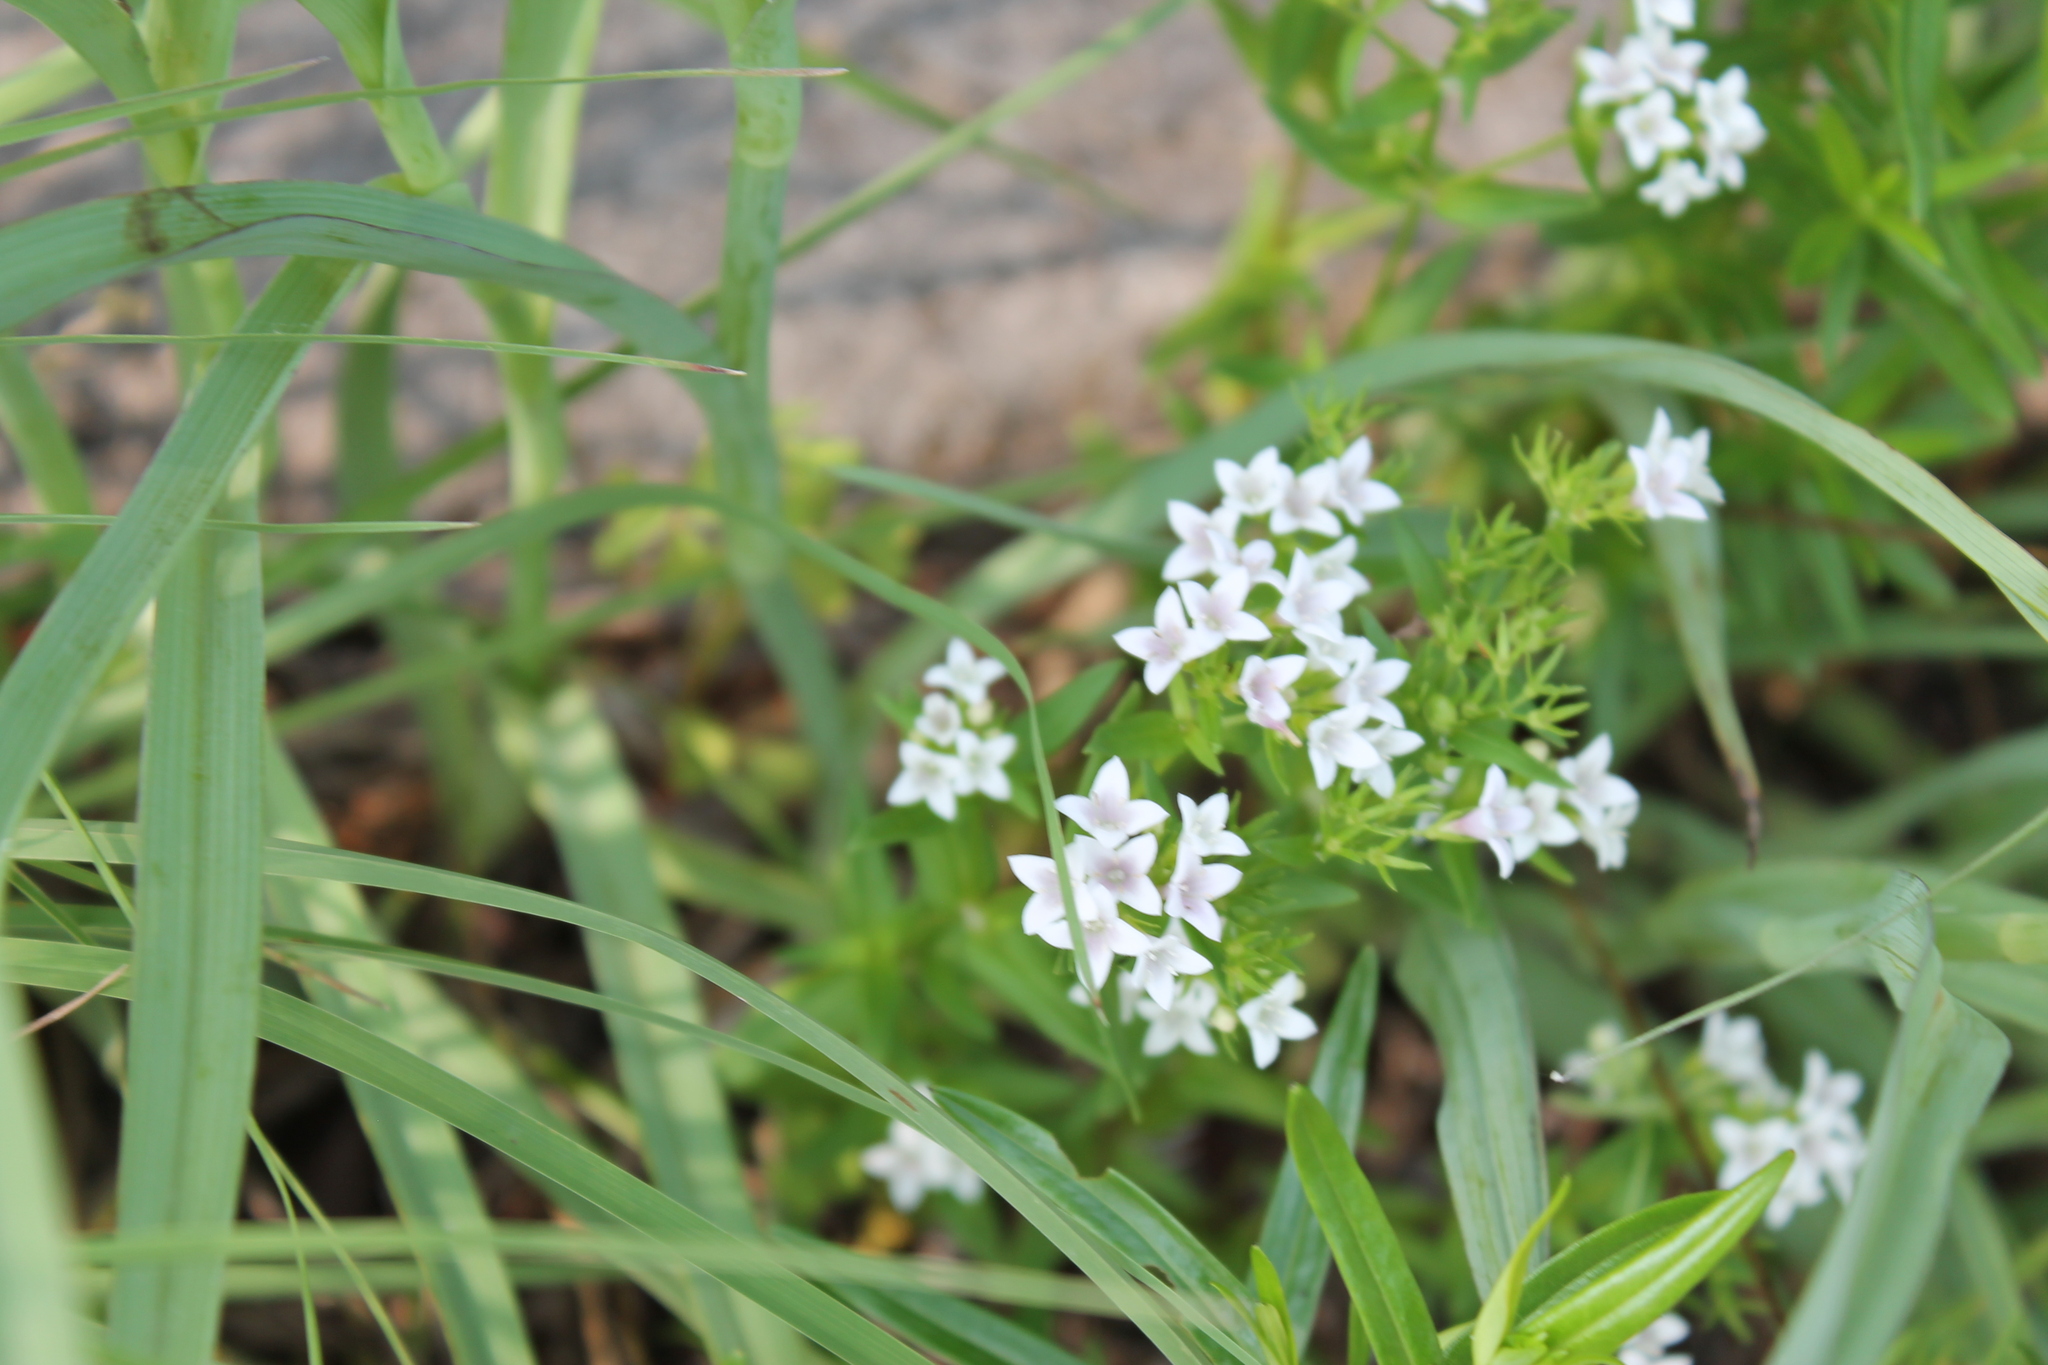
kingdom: Plantae
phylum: Tracheophyta
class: Magnoliopsida
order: Gentianales
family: Rubiaceae
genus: Houstonia
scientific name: Houstonia purpurea
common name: Summer bluet
